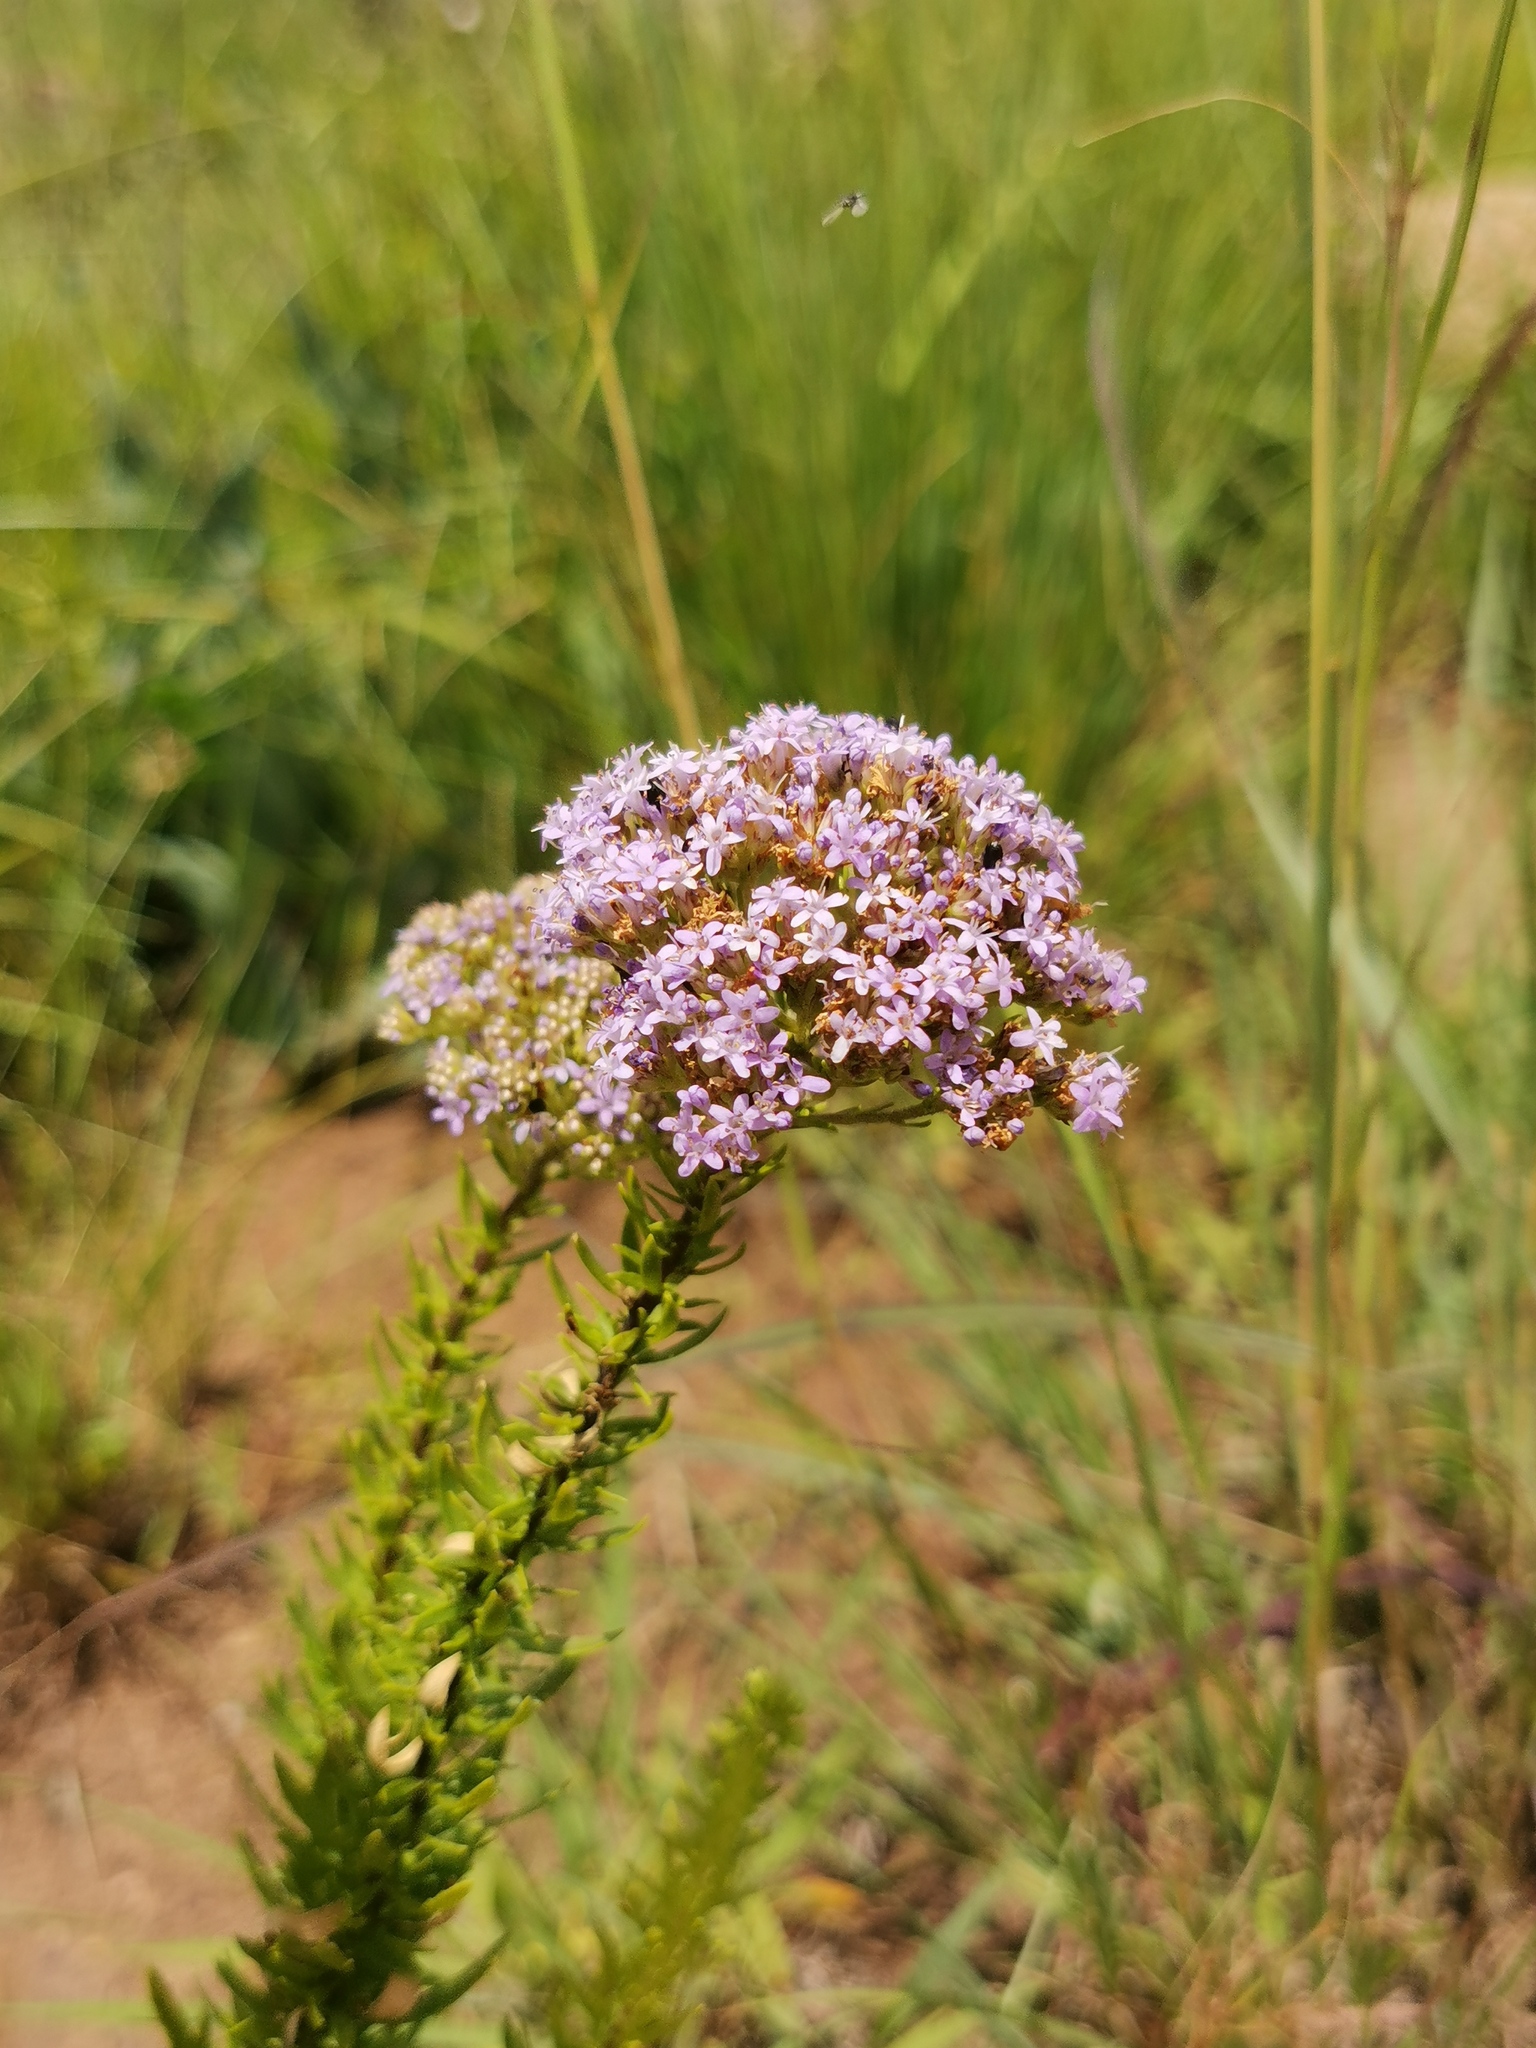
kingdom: Plantae
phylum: Tracheophyta
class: Magnoliopsida
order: Lamiales
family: Scrophulariaceae
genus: Tetraselago
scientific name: Tetraselago natalensis
